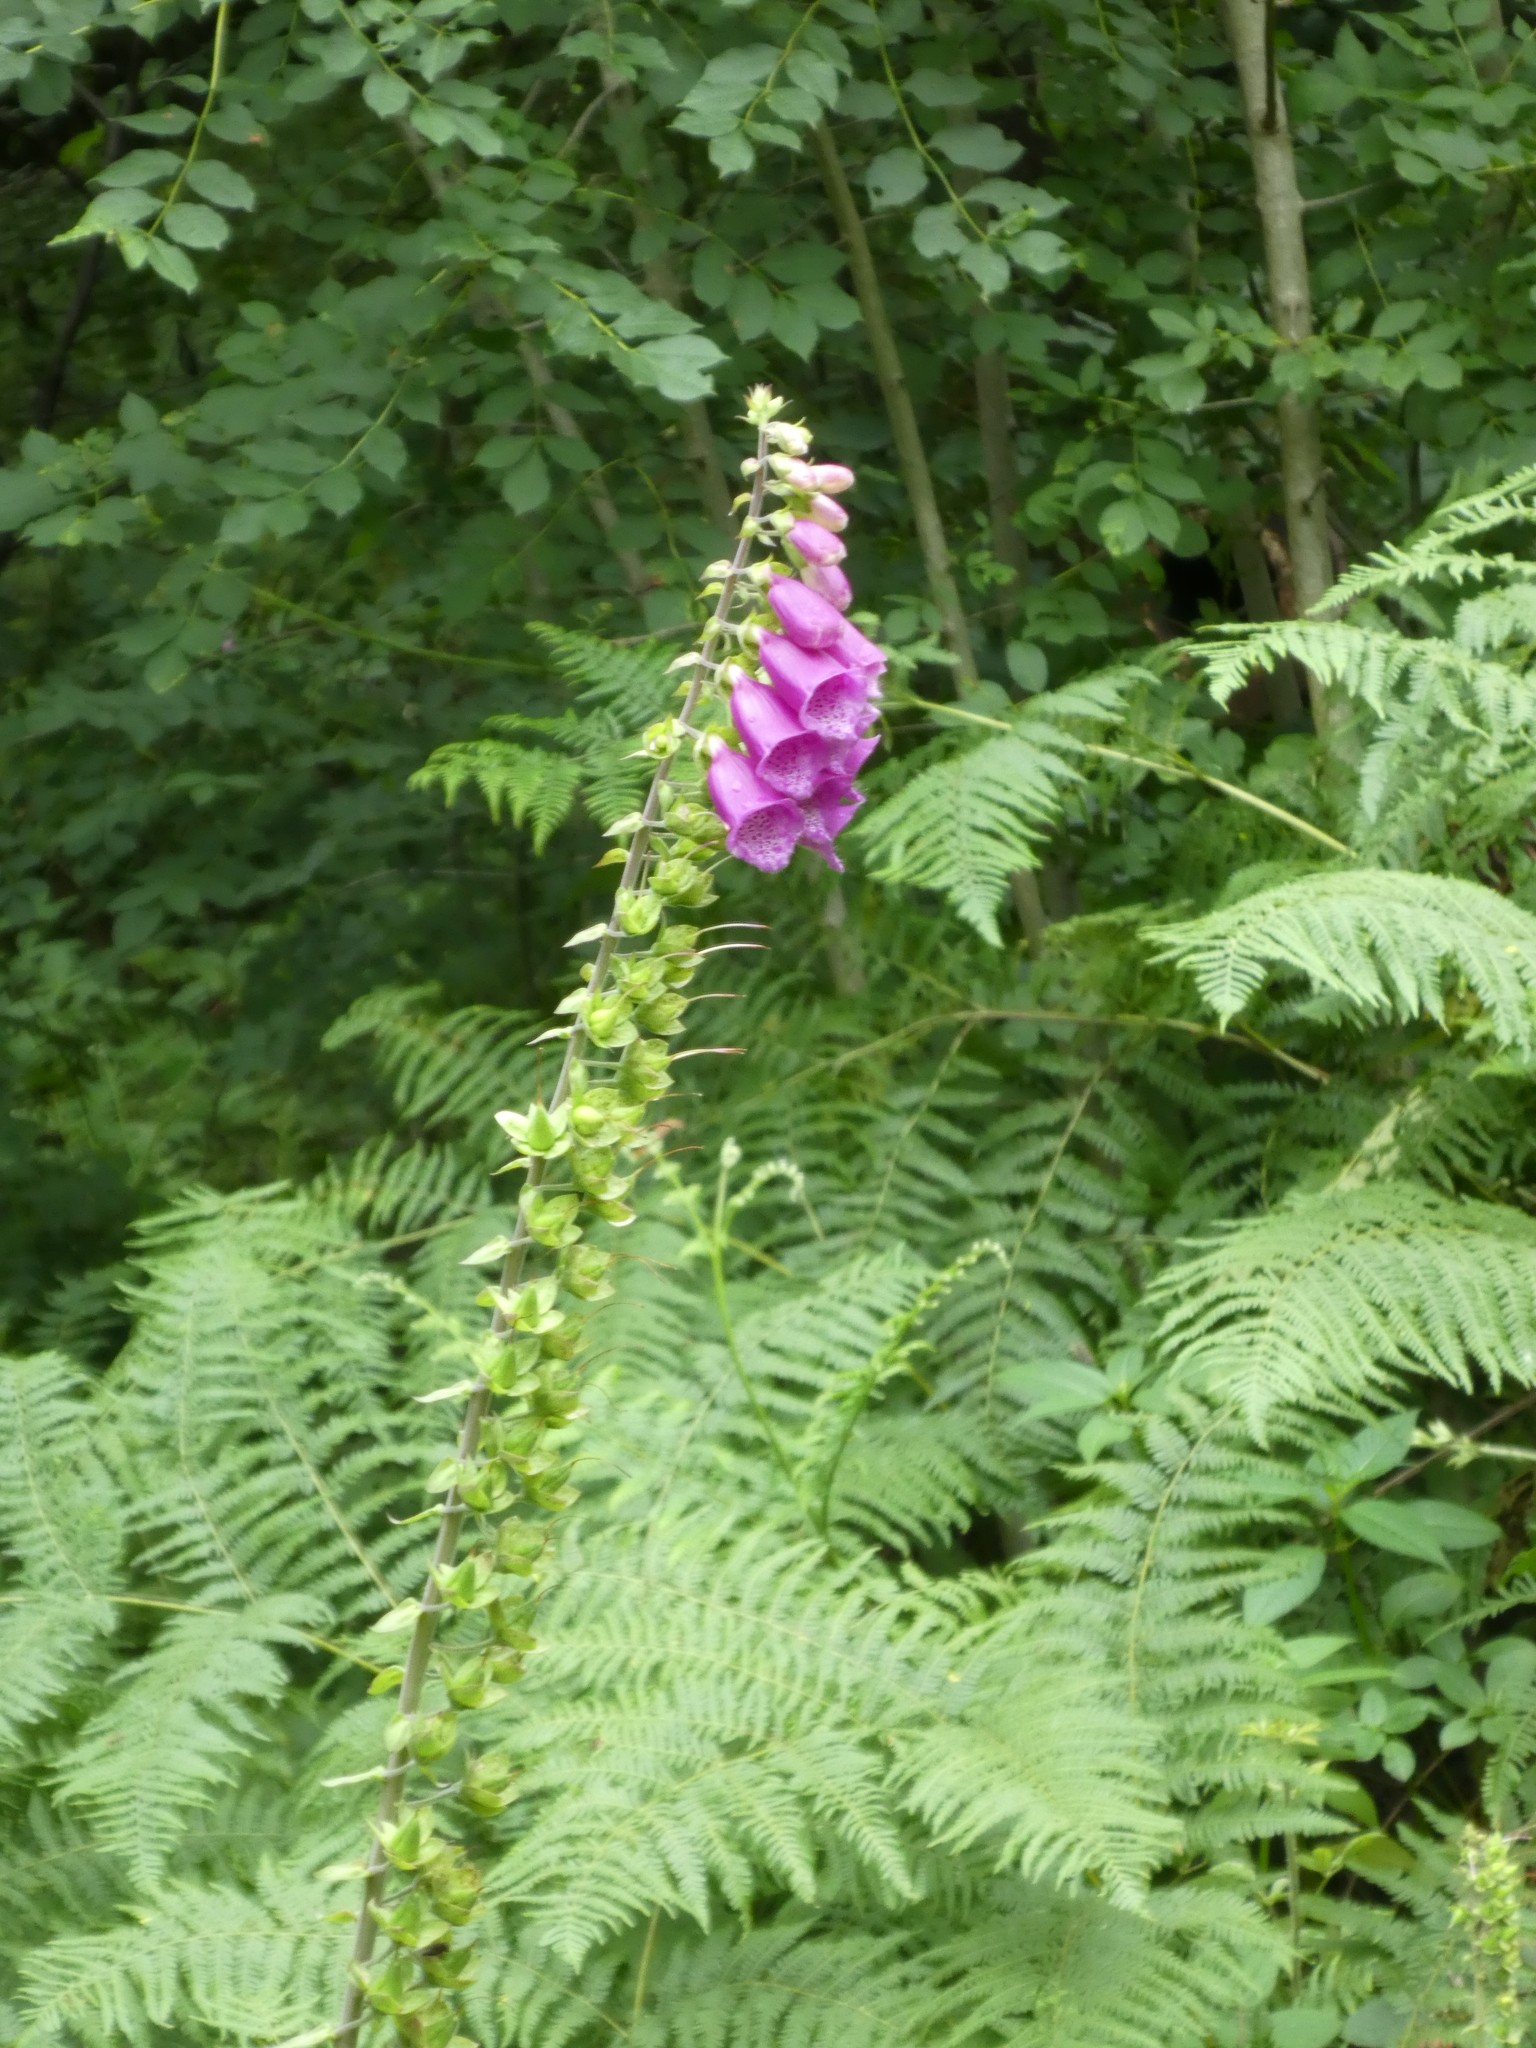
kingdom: Plantae
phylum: Tracheophyta
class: Magnoliopsida
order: Lamiales
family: Plantaginaceae
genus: Digitalis
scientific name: Digitalis purpurea
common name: Foxglove
